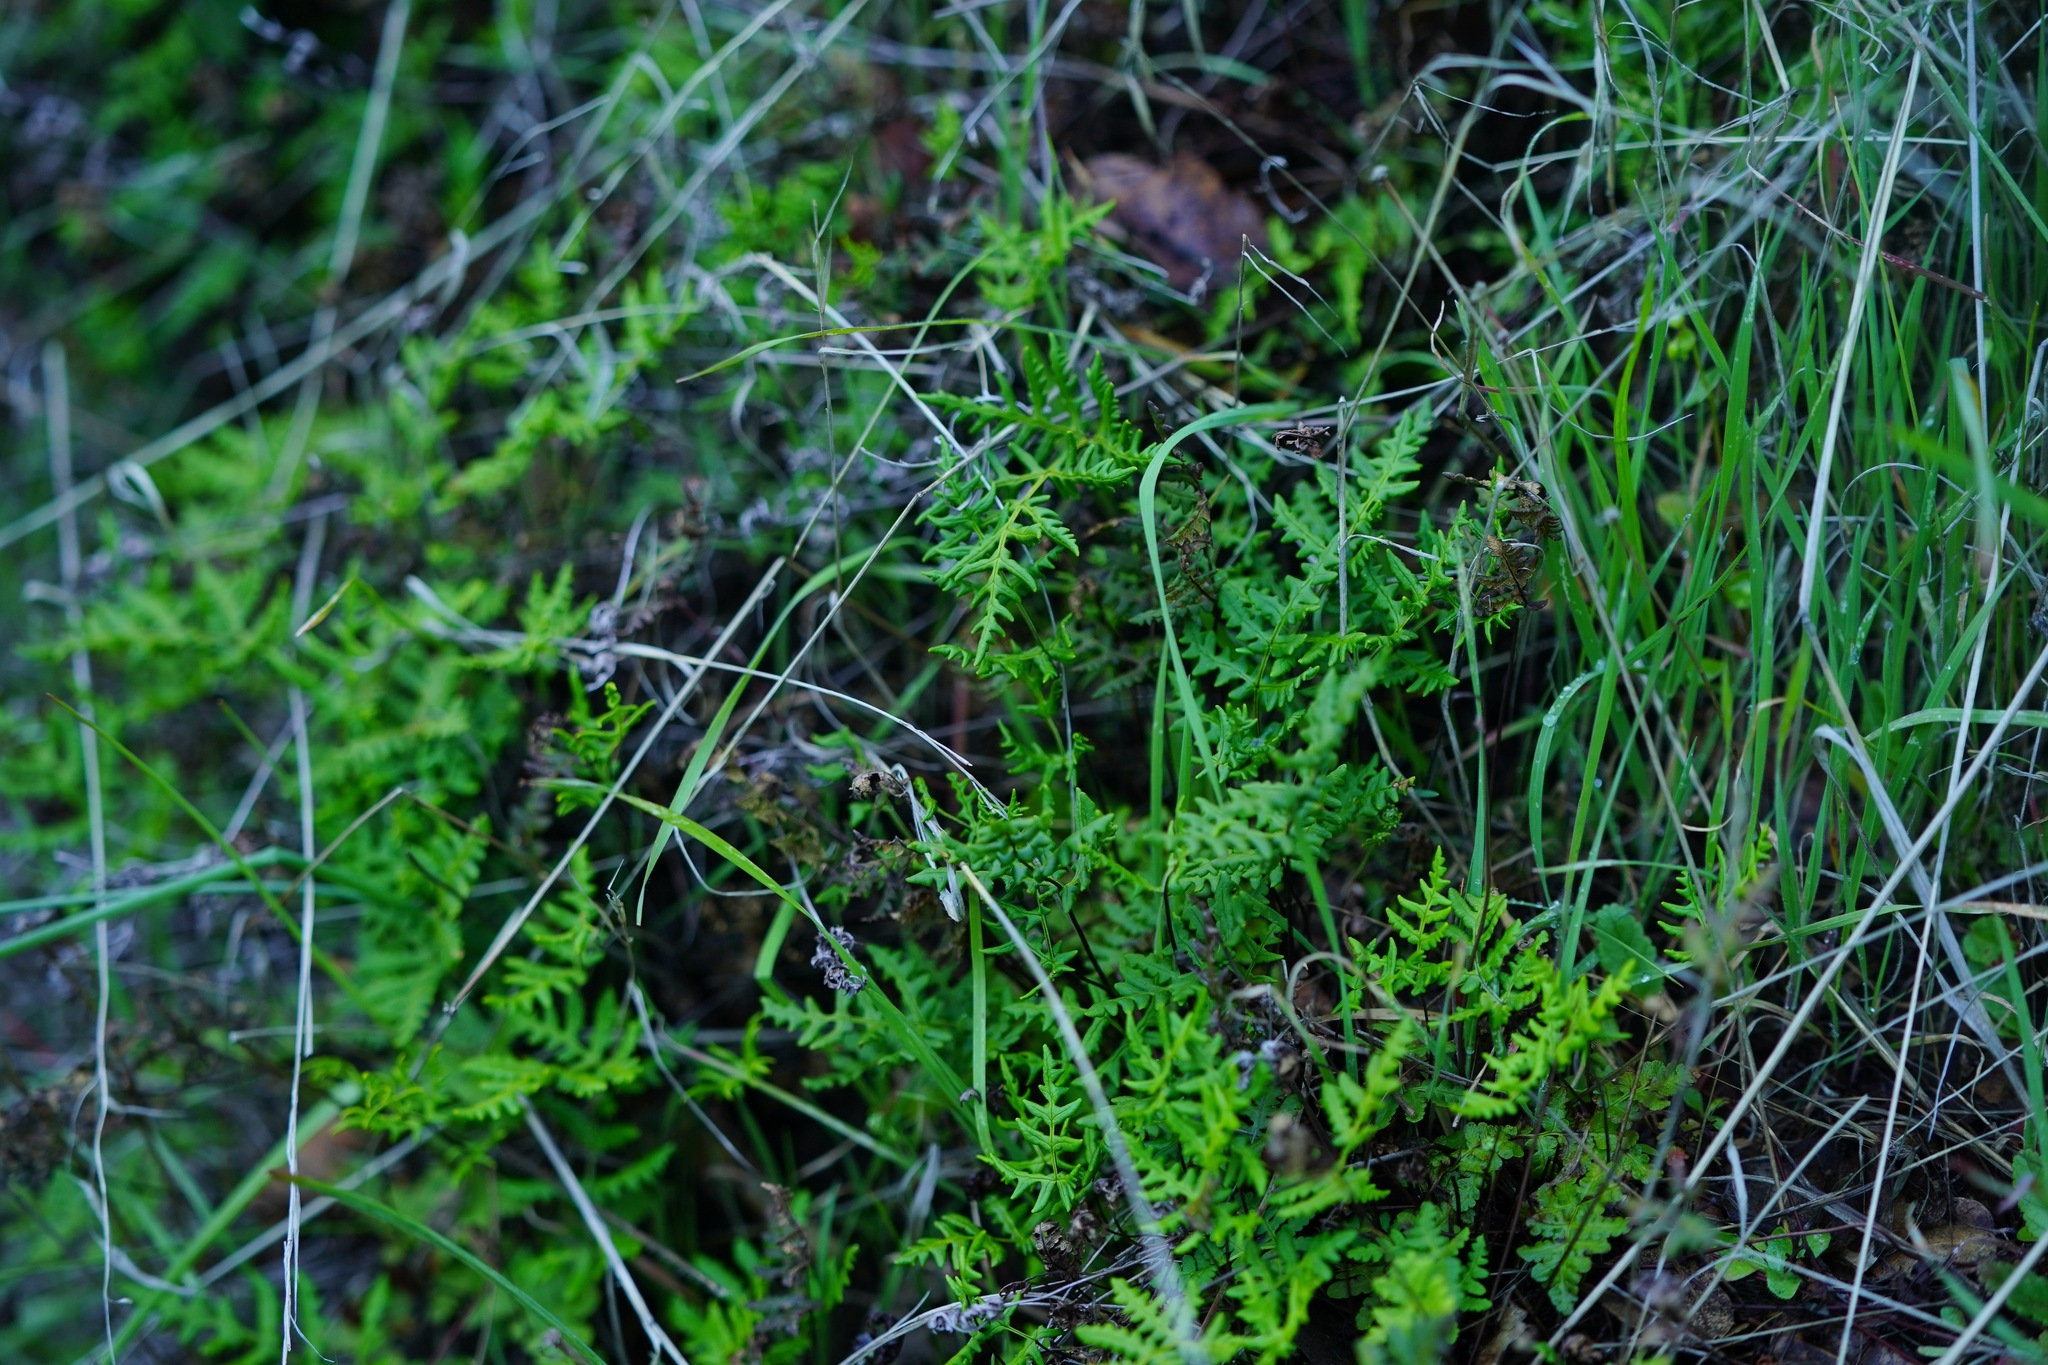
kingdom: Plantae
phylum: Tracheophyta
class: Polypodiopsida
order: Polypodiales
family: Pteridaceae
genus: Pentagramma
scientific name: Pentagramma triangularis
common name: Gold fern
